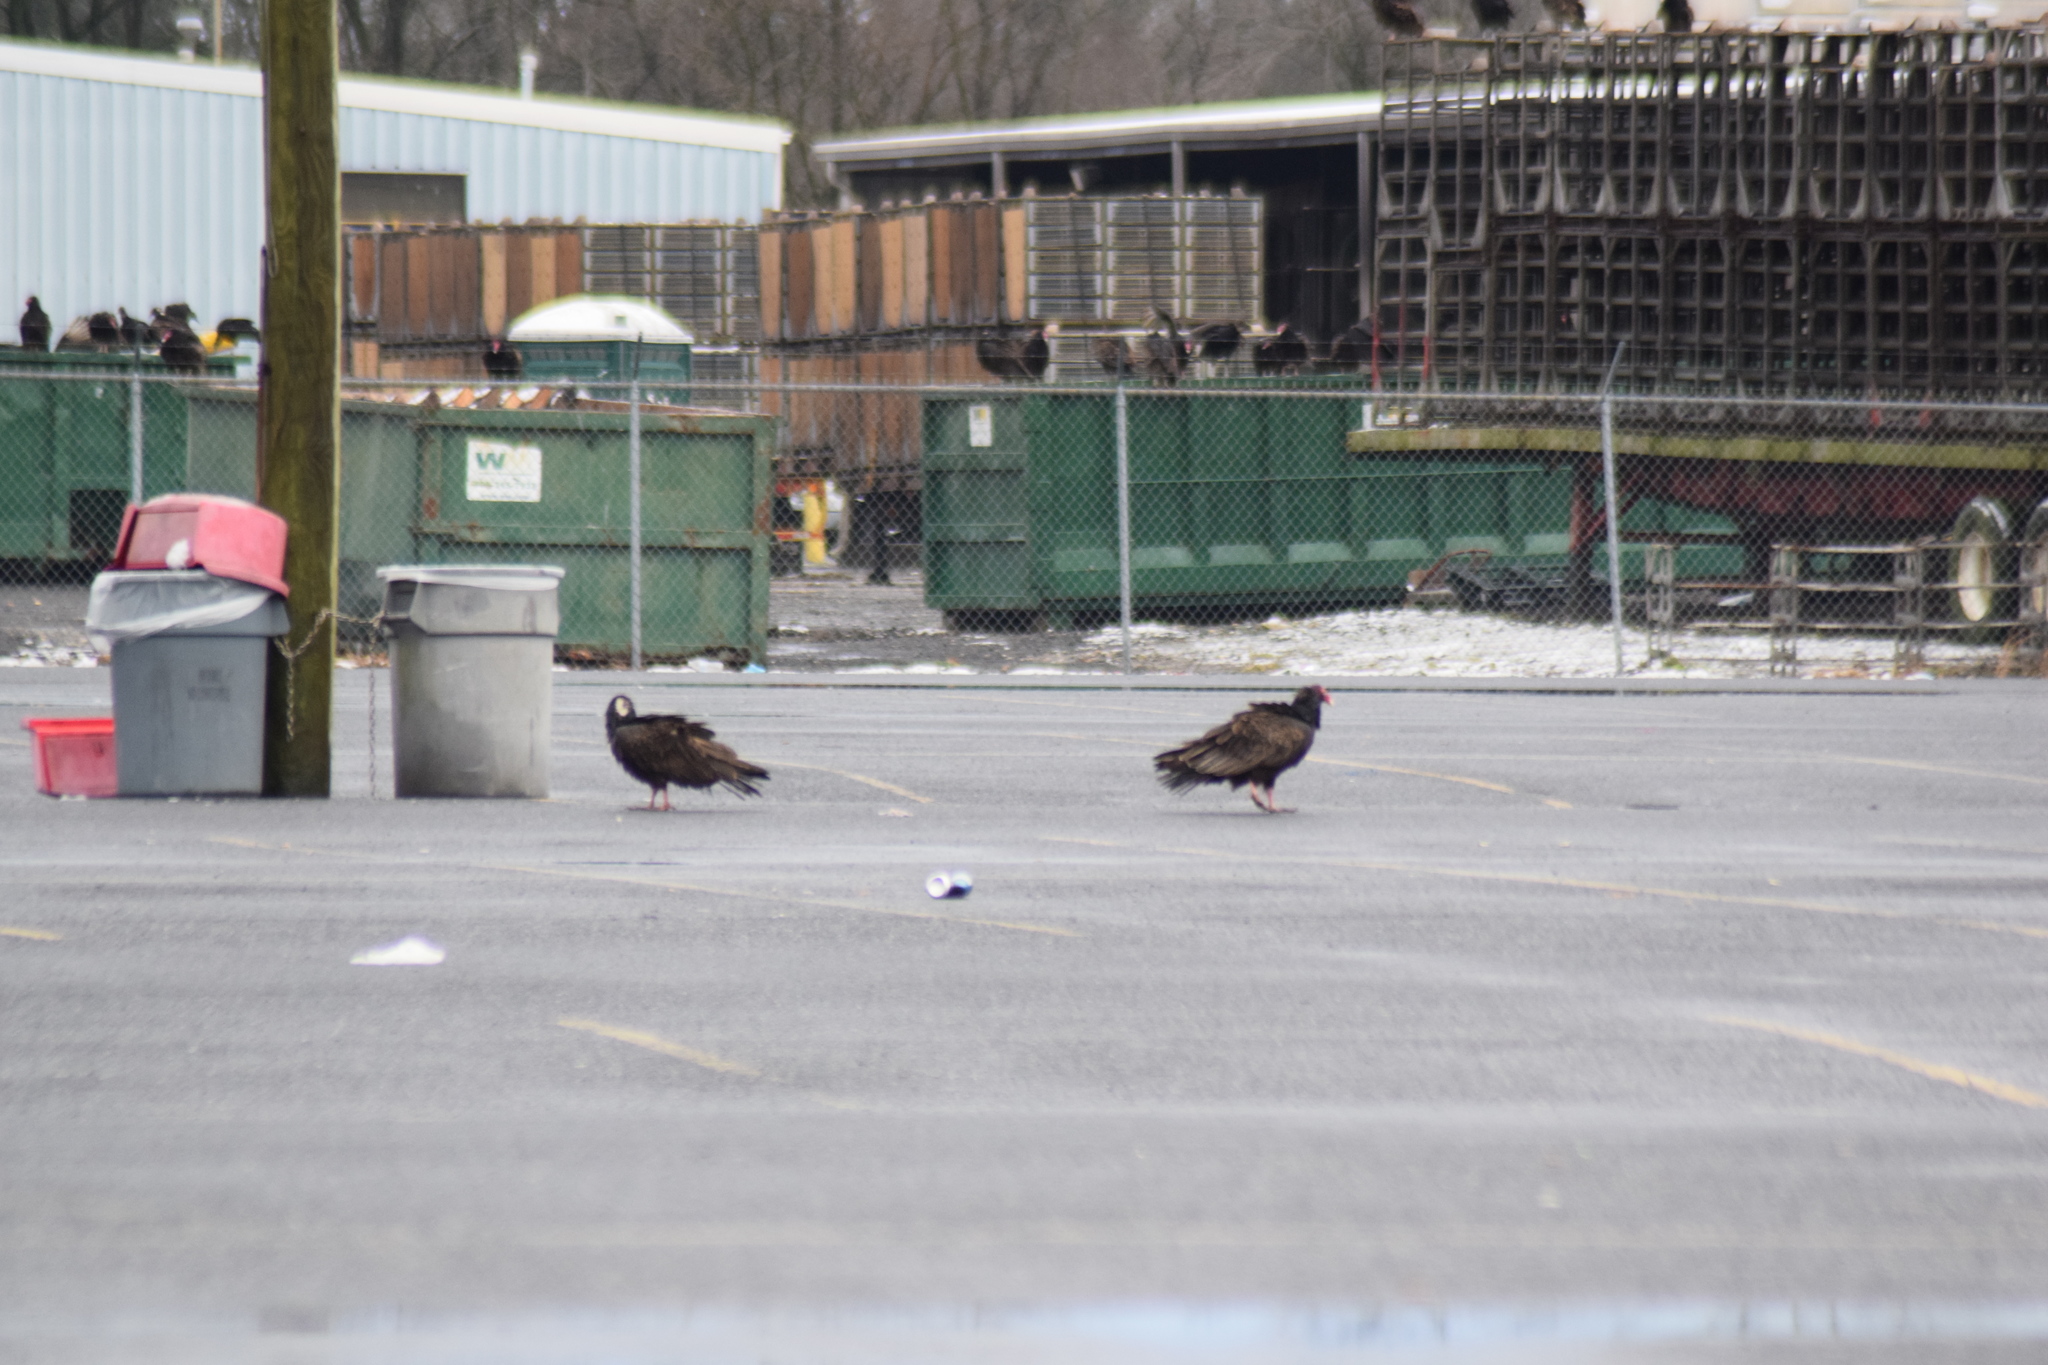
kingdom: Animalia
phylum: Chordata
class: Aves
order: Accipitriformes
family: Cathartidae
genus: Cathartes
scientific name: Cathartes aura
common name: Turkey vulture
